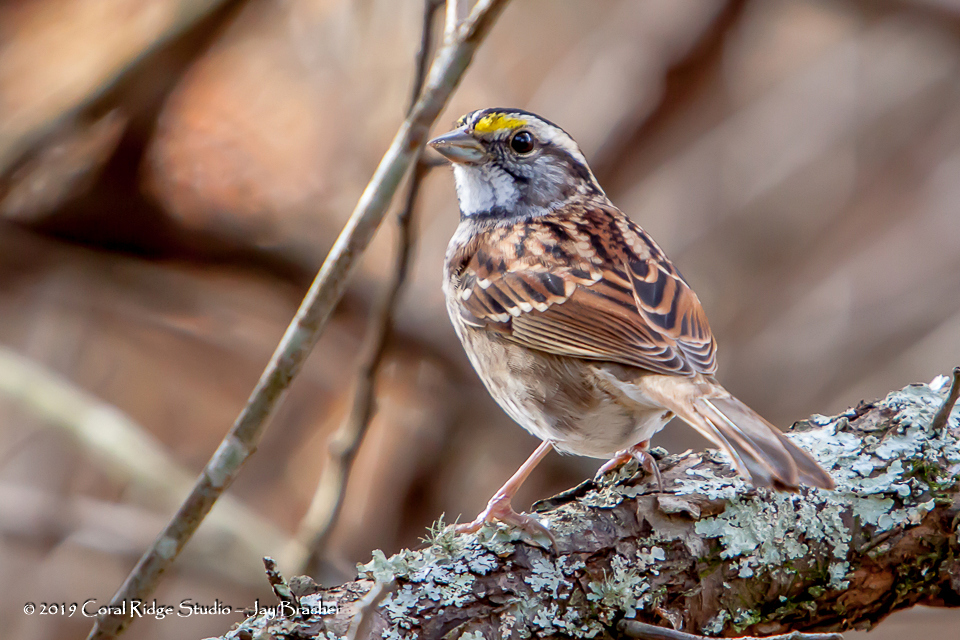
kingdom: Animalia
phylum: Chordata
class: Aves
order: Passeriformes
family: Passerellidae
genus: Zonotrichia
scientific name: Zonotrichia albicollis
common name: White-throated sparrow
